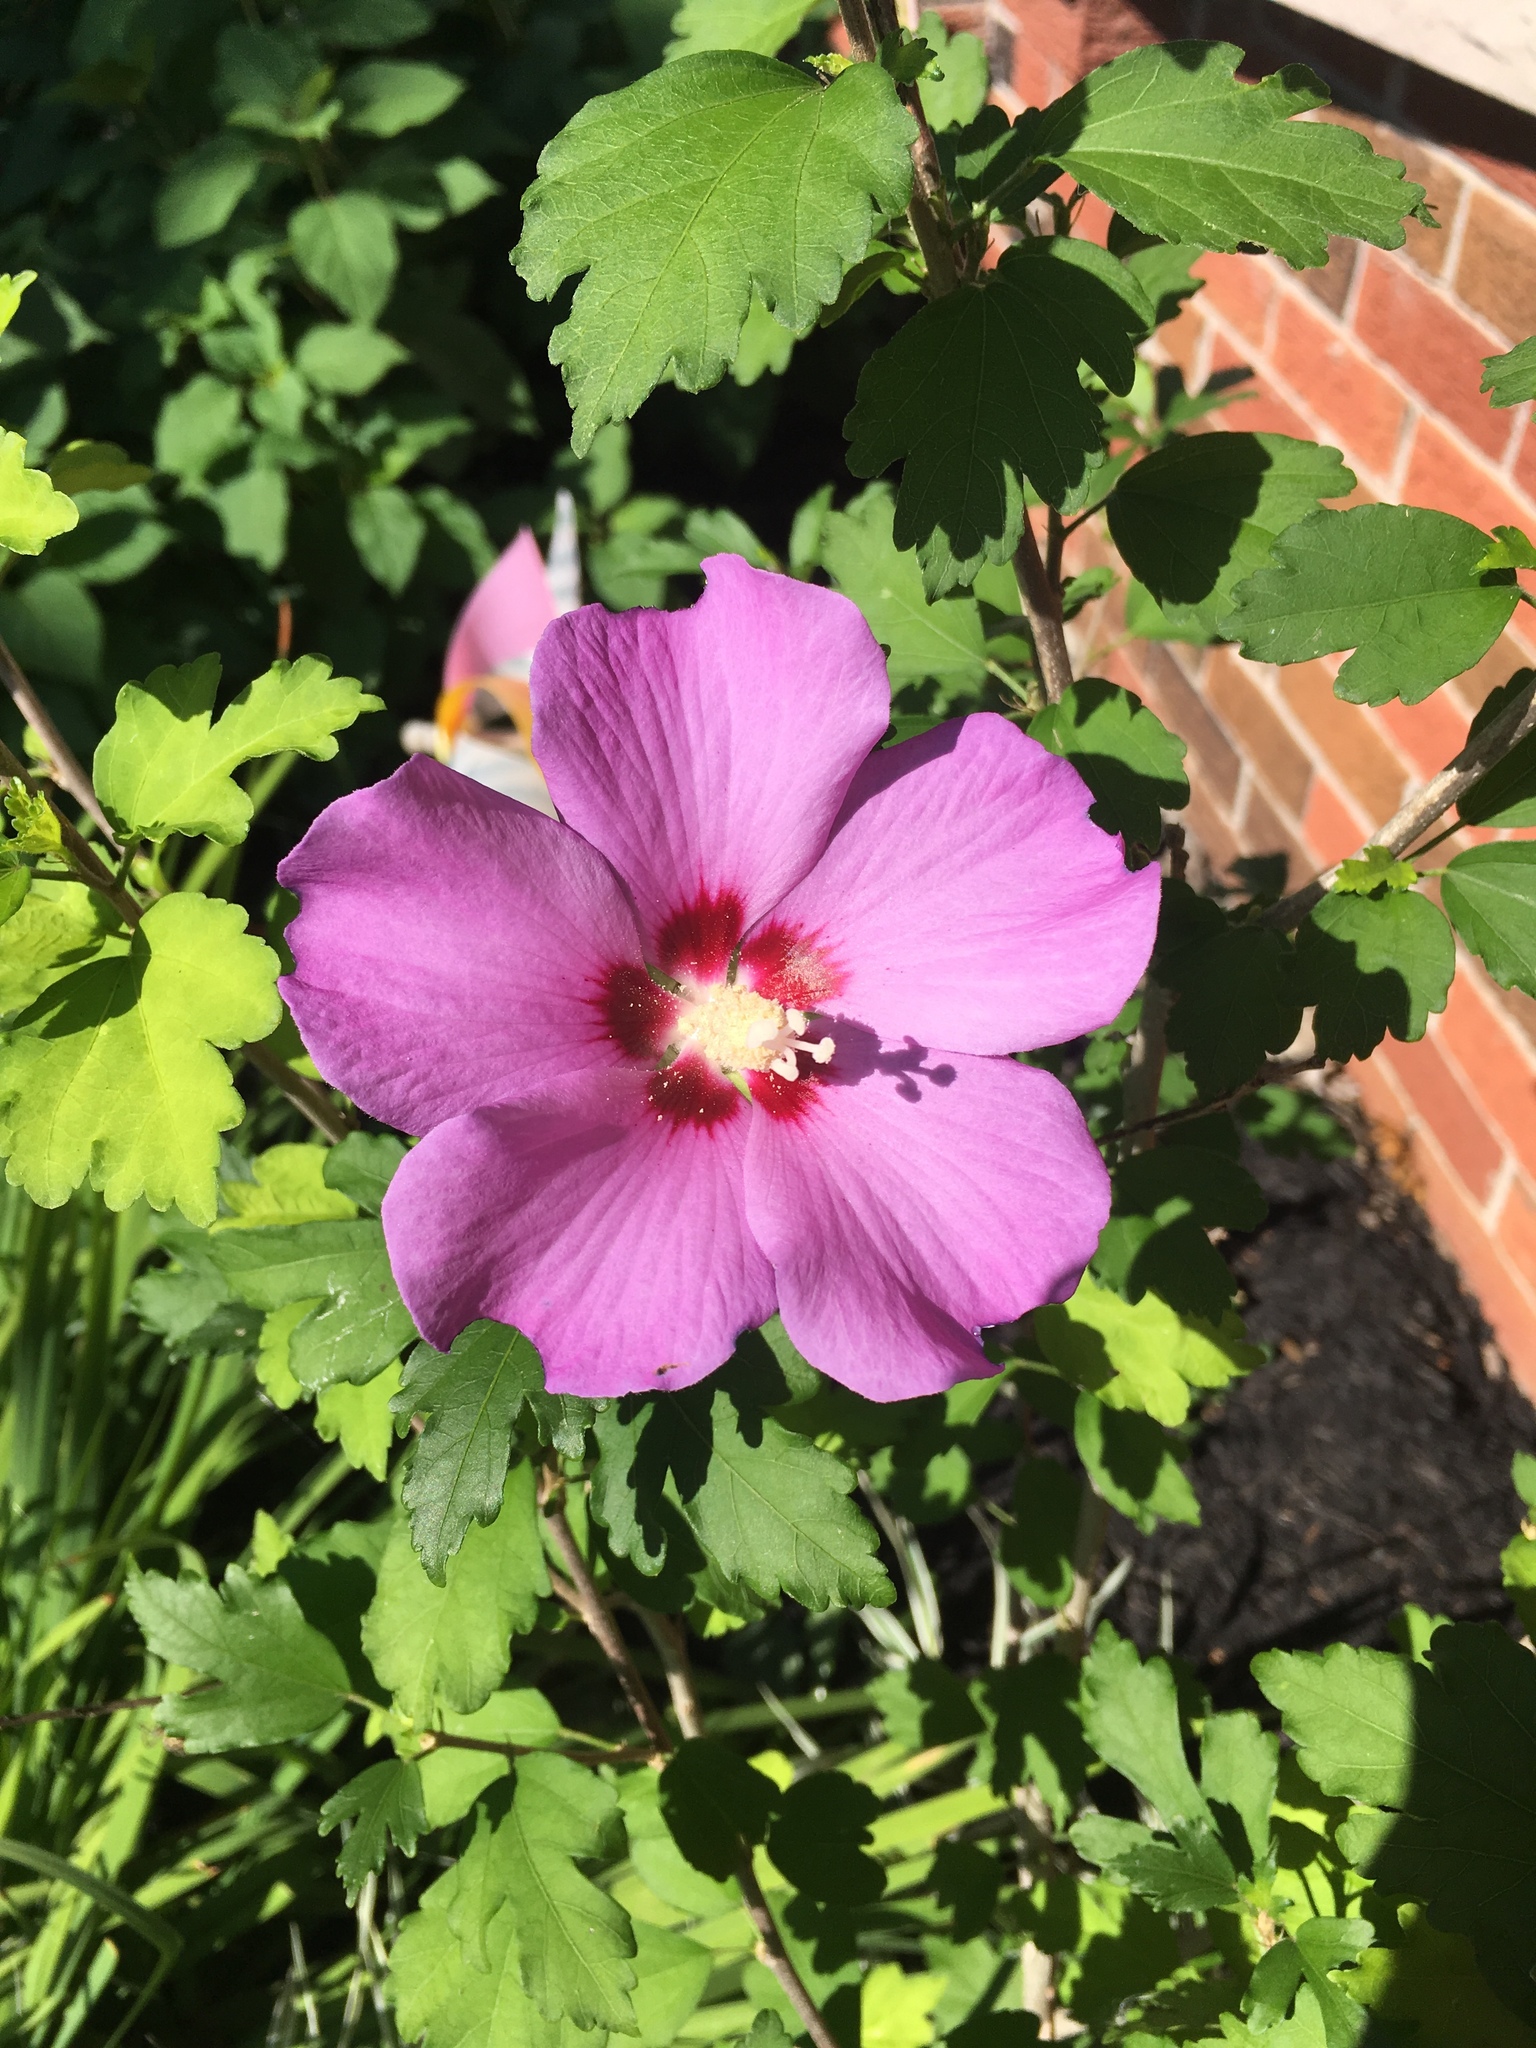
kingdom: Plantae
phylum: Tracheophyta
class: Magnoliopsida
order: Malvales
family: Malvaceae
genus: Hibiscus
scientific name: Hibiscus syriacus
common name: Syrian ketmia
